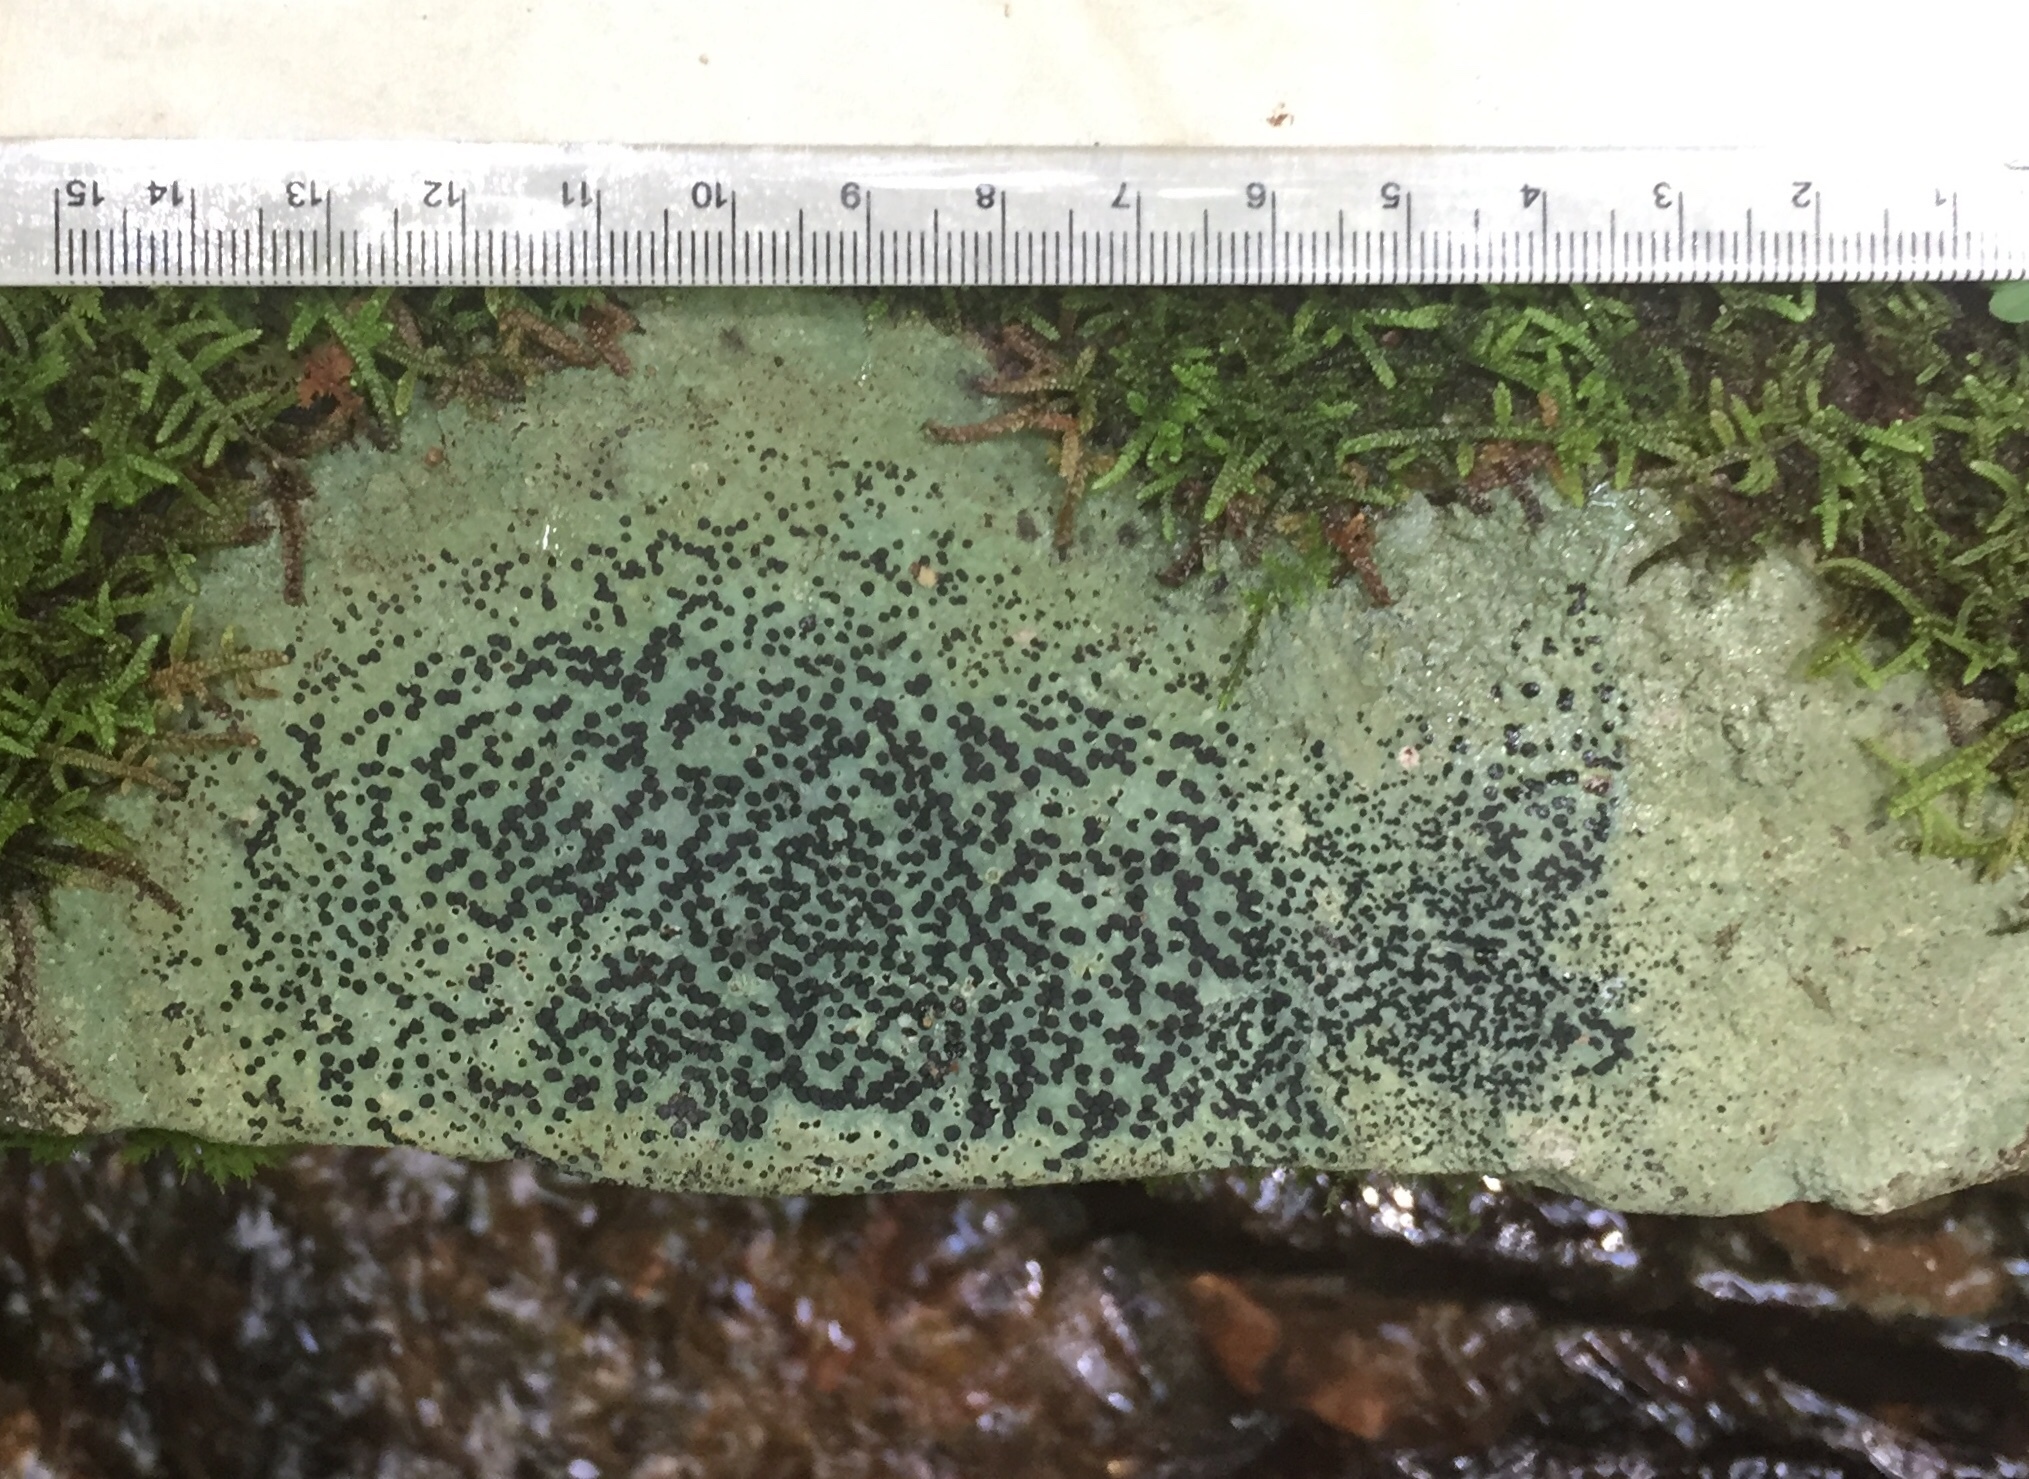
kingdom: Fungi
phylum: Ascomycota
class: Lecanoromycetes
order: Lecideales
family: Lecideaceae
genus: Porpidia
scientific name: Porpidia albocaerulescens
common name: Smokey-eyed boulder lichen
